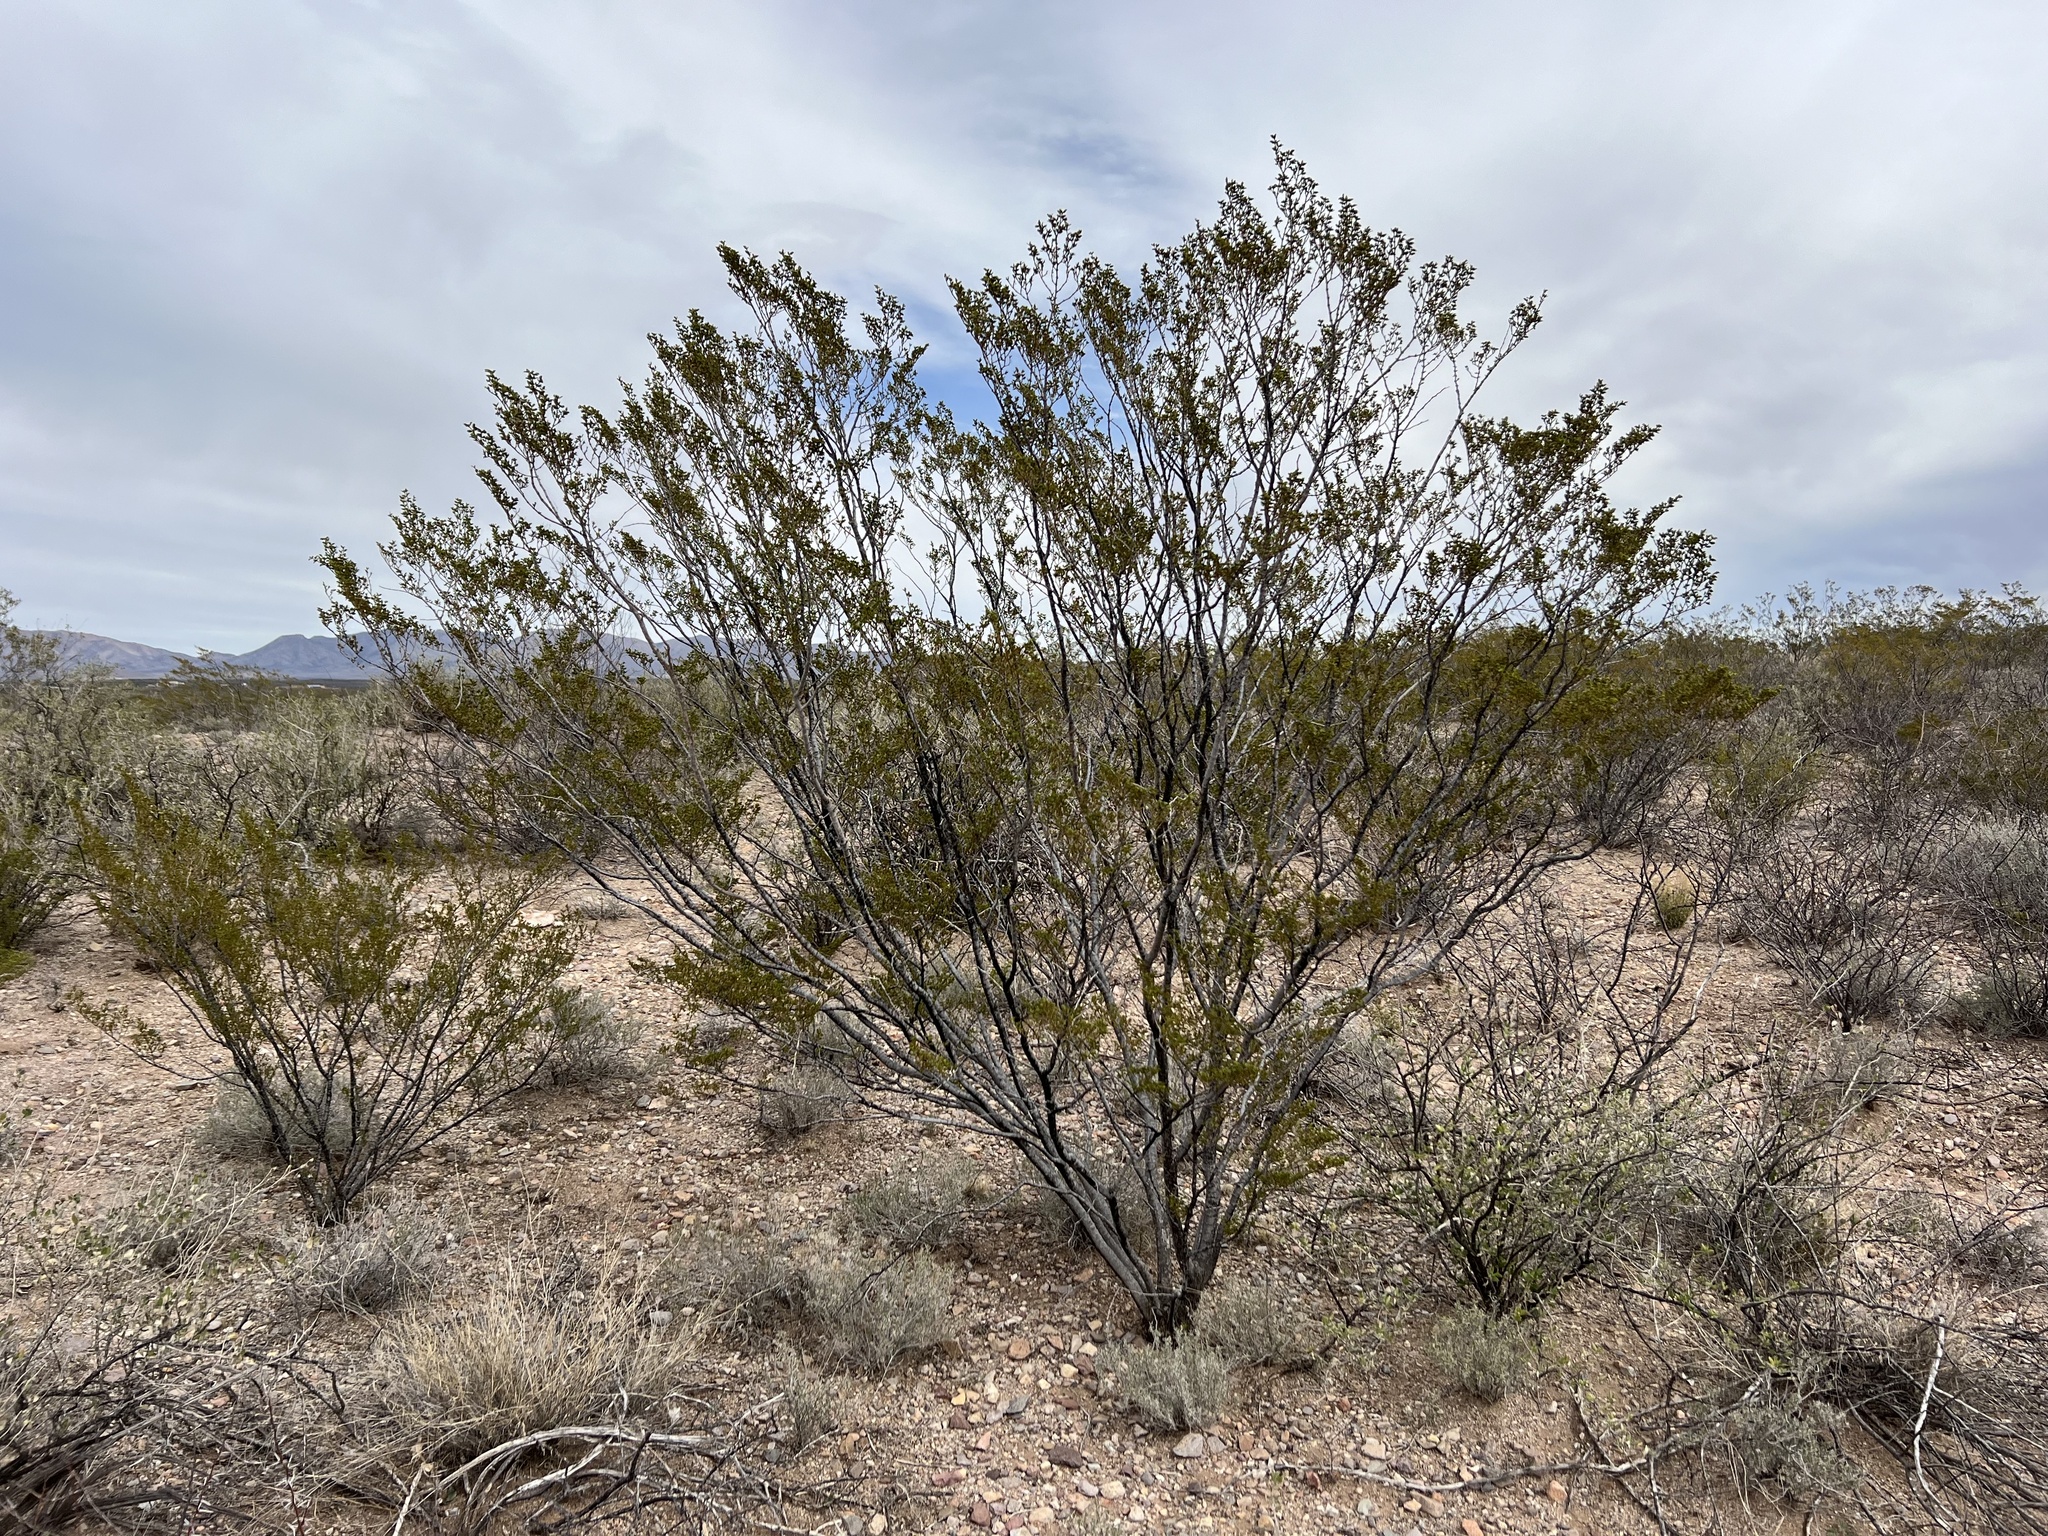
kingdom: Plantae
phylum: Tracheophyta
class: Magnoliopsida
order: Zygophyllales
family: Zygophyllaceae
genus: Larrea
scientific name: Larrea tridentata
